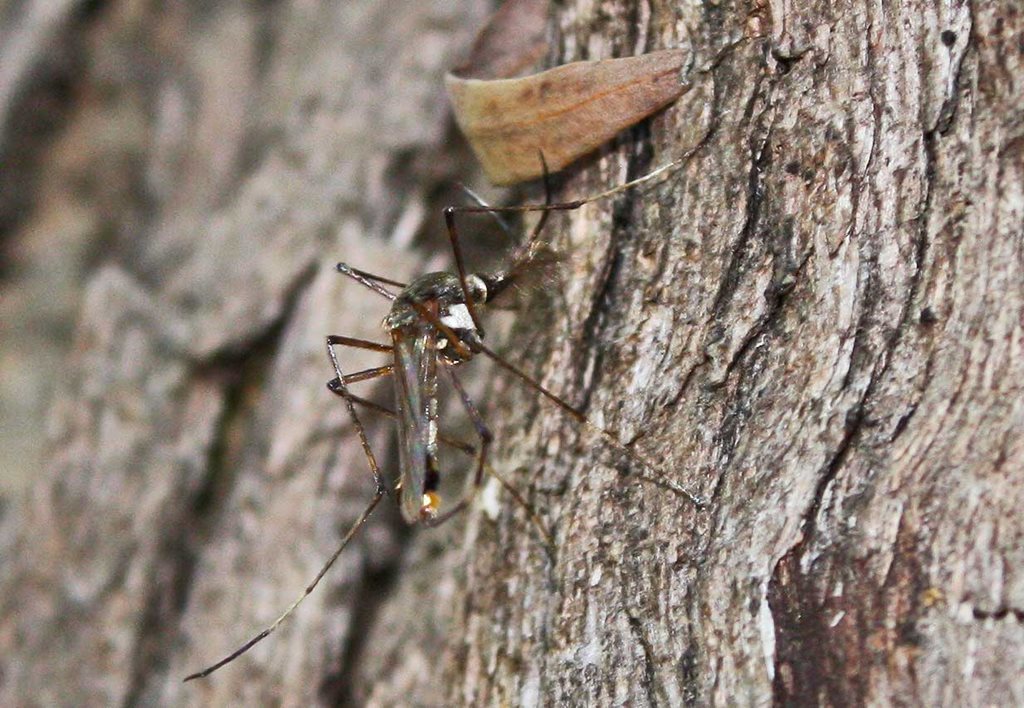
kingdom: Animalia
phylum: Arthropoda
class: Insecta
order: Diptera
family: Culicidae
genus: Toxorhynchites
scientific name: Toxorhynchites speciosus
